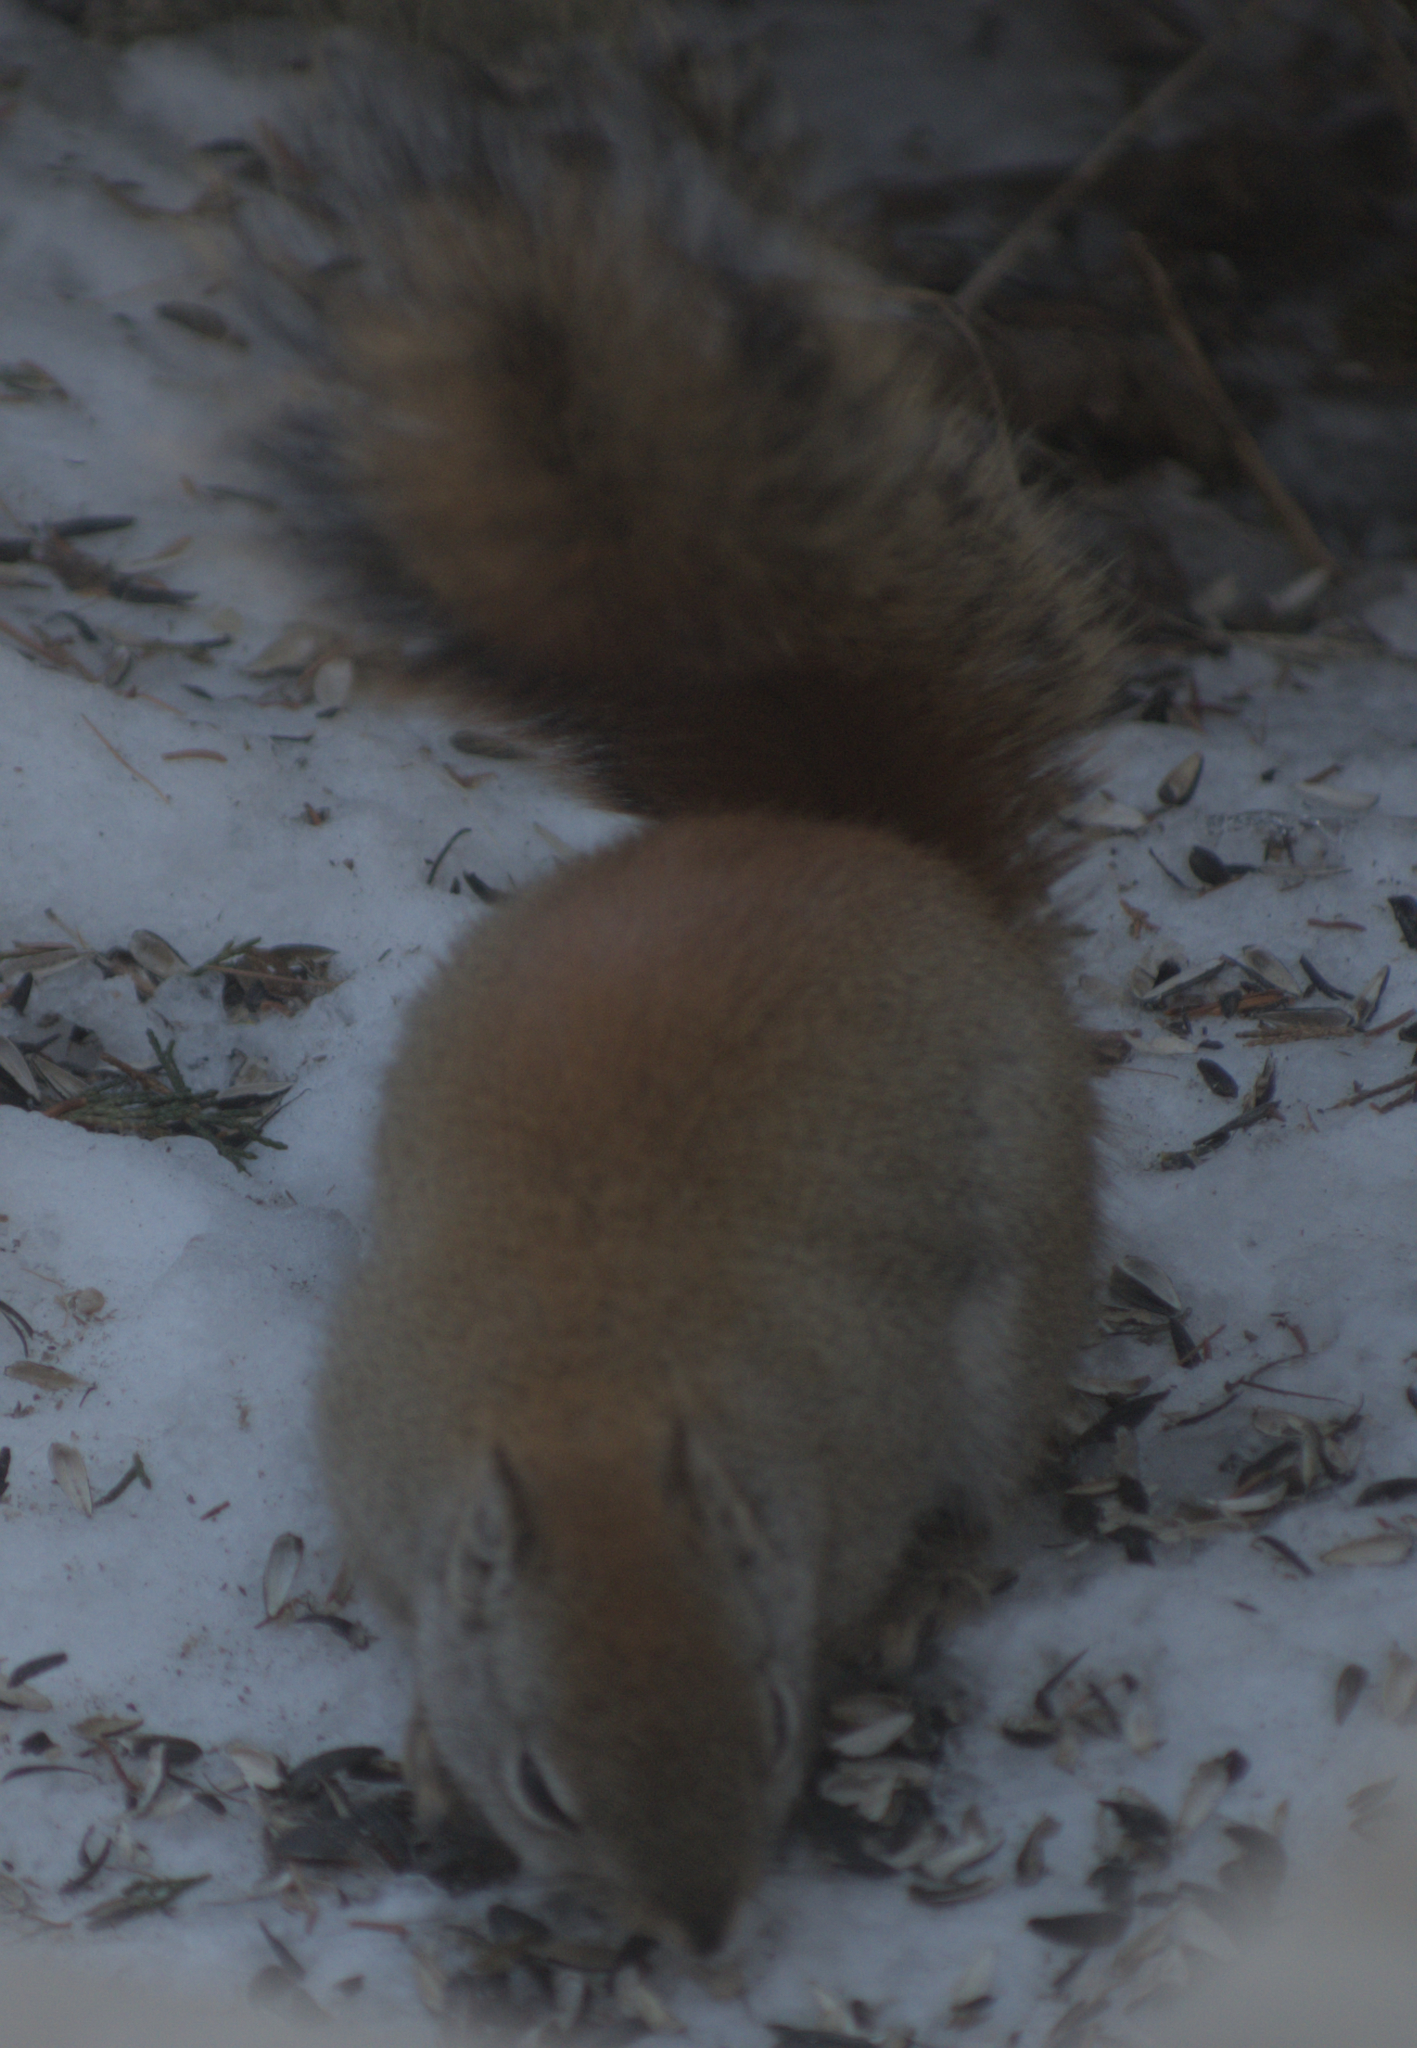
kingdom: Animalia
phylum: Chordata
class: Mammalia
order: Rodentia
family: Sciuridae
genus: Tamiasciurus
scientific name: Tamiasciurus hudsonicus
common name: Red squirrel
